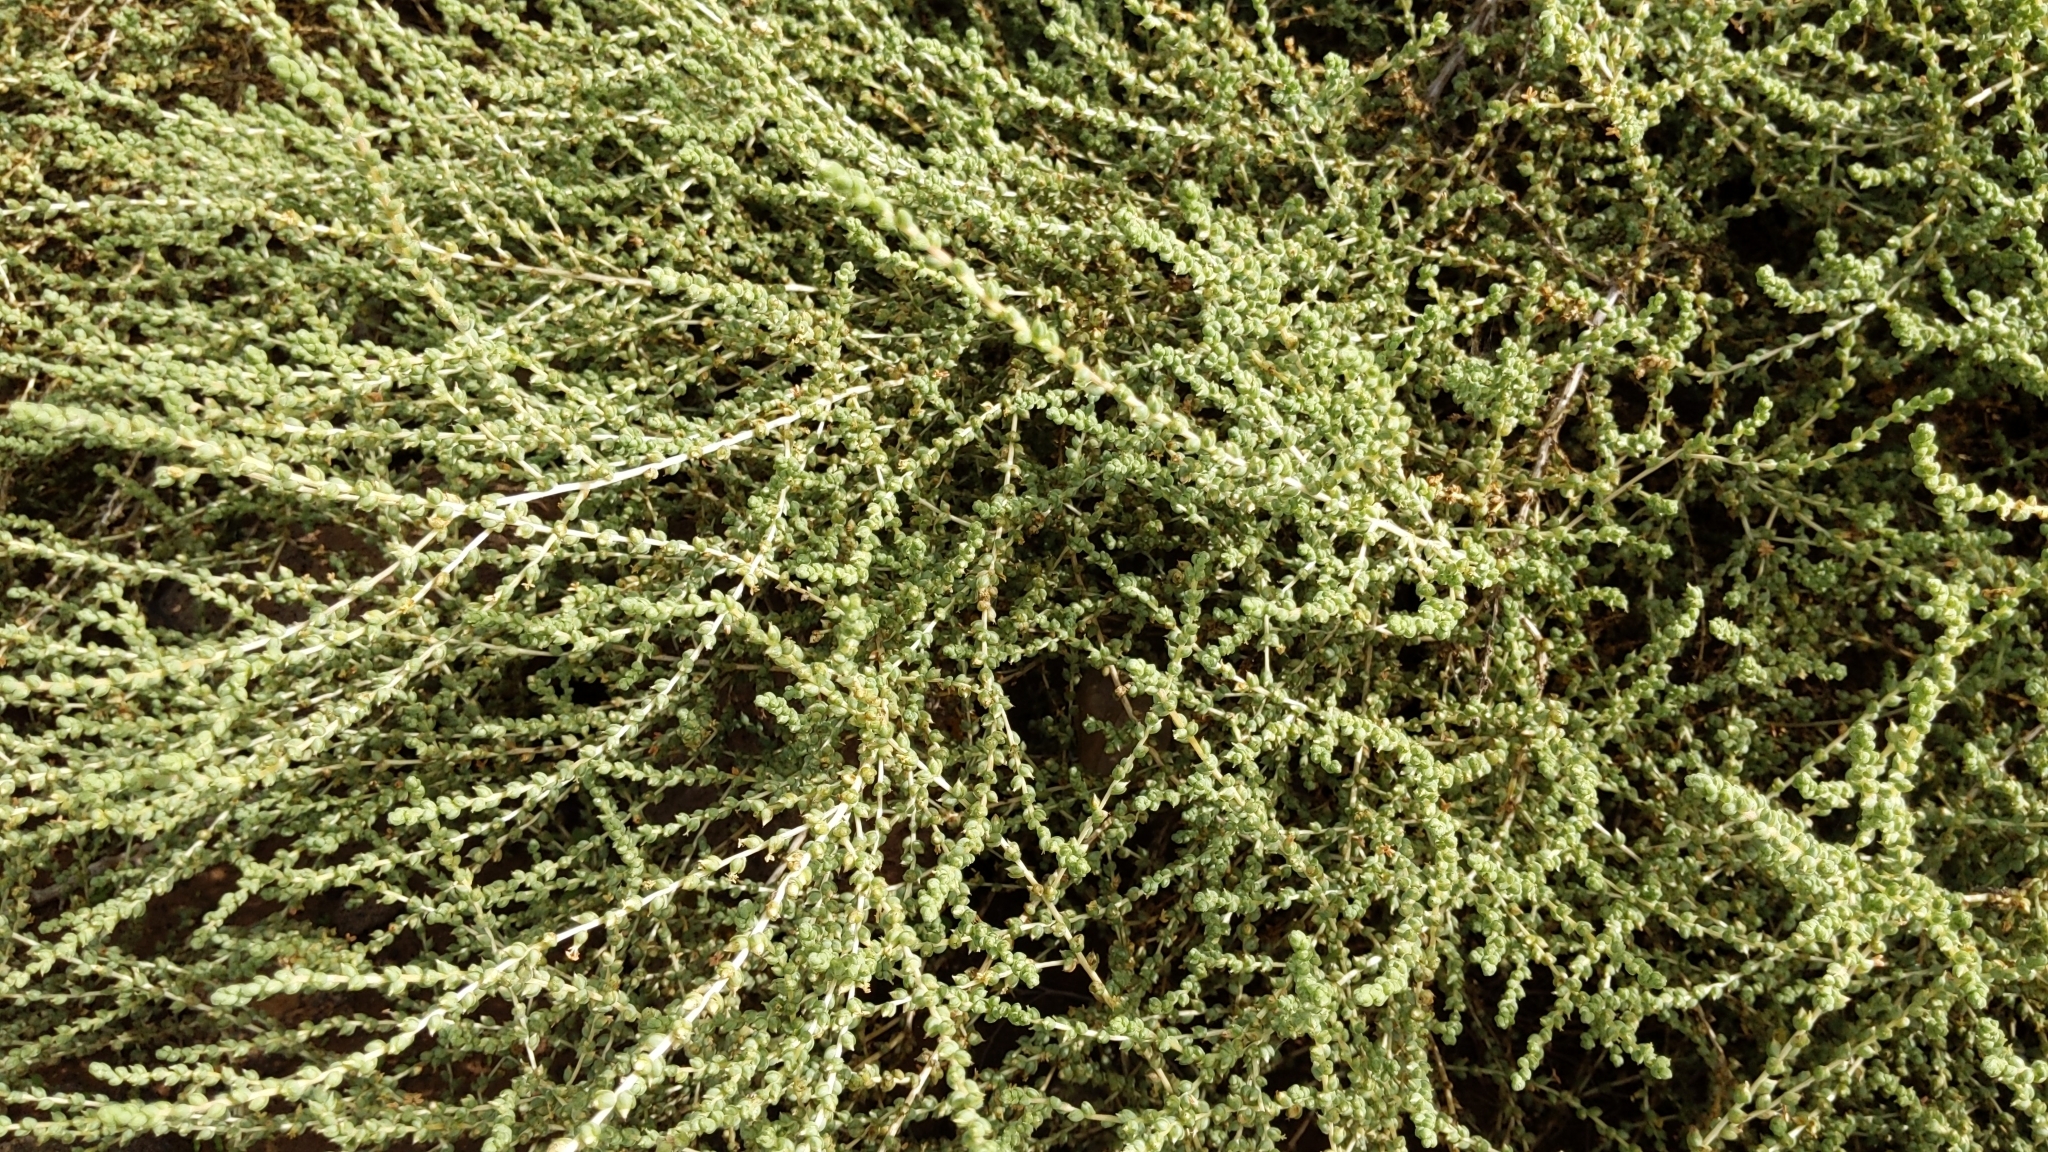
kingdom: Plantae
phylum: Tracheophyta
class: Magnoliopsida
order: Caryophyllales
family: Amaranthaceae
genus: Nitrosalsola
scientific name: Nitrosalsola vermiculata
